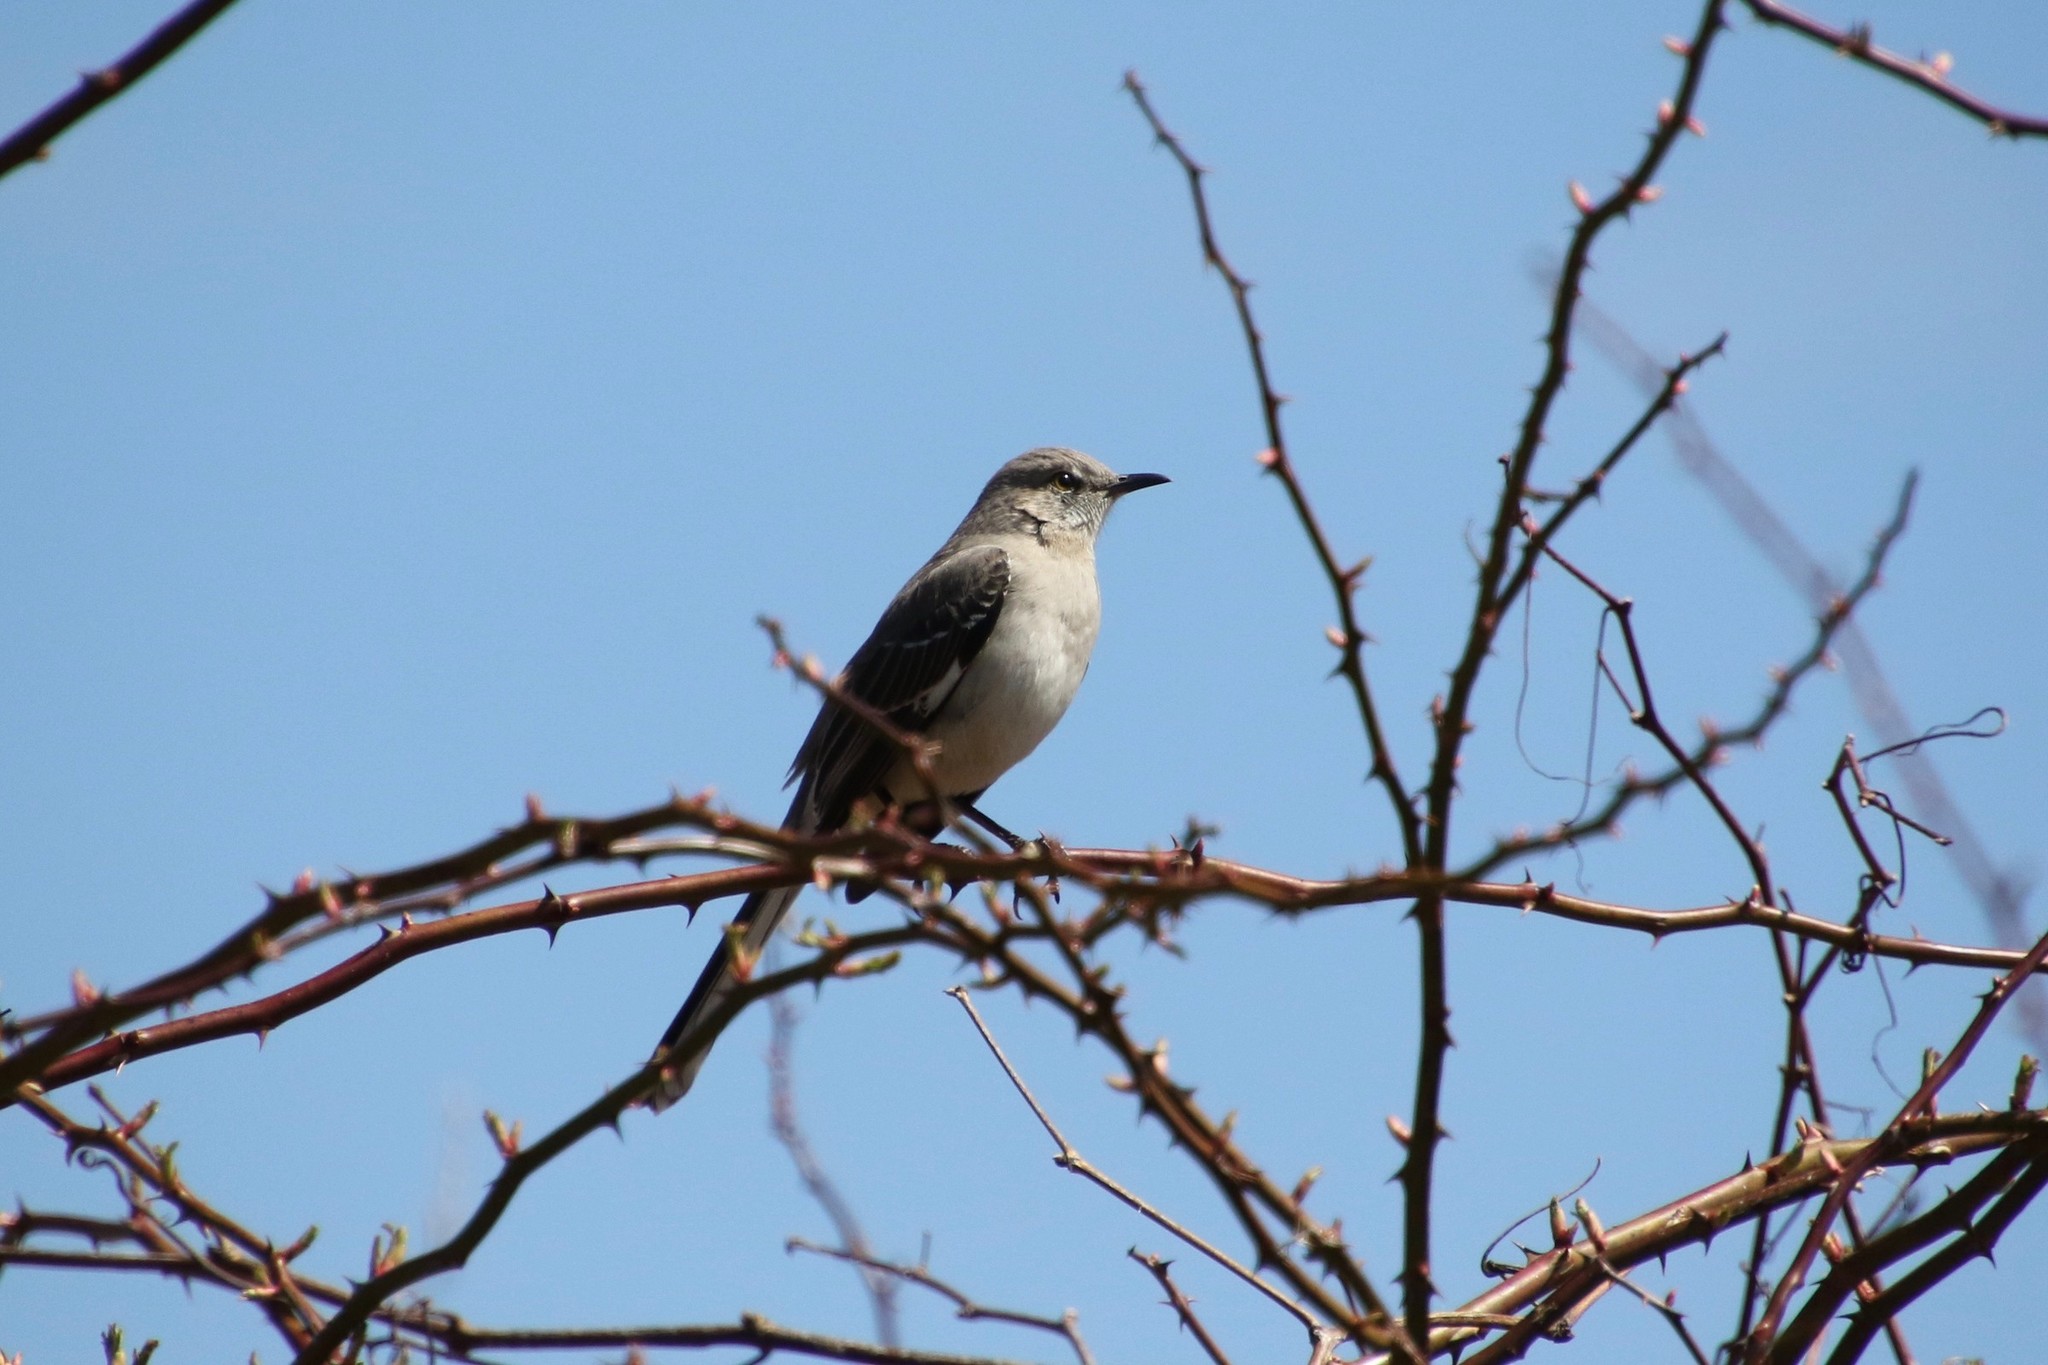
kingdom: Animalia
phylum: Chordata
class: Aves
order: Passeriformes
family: Mimidae
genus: Mimus
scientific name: Mimus polyglottos
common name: Northern mockingbird
